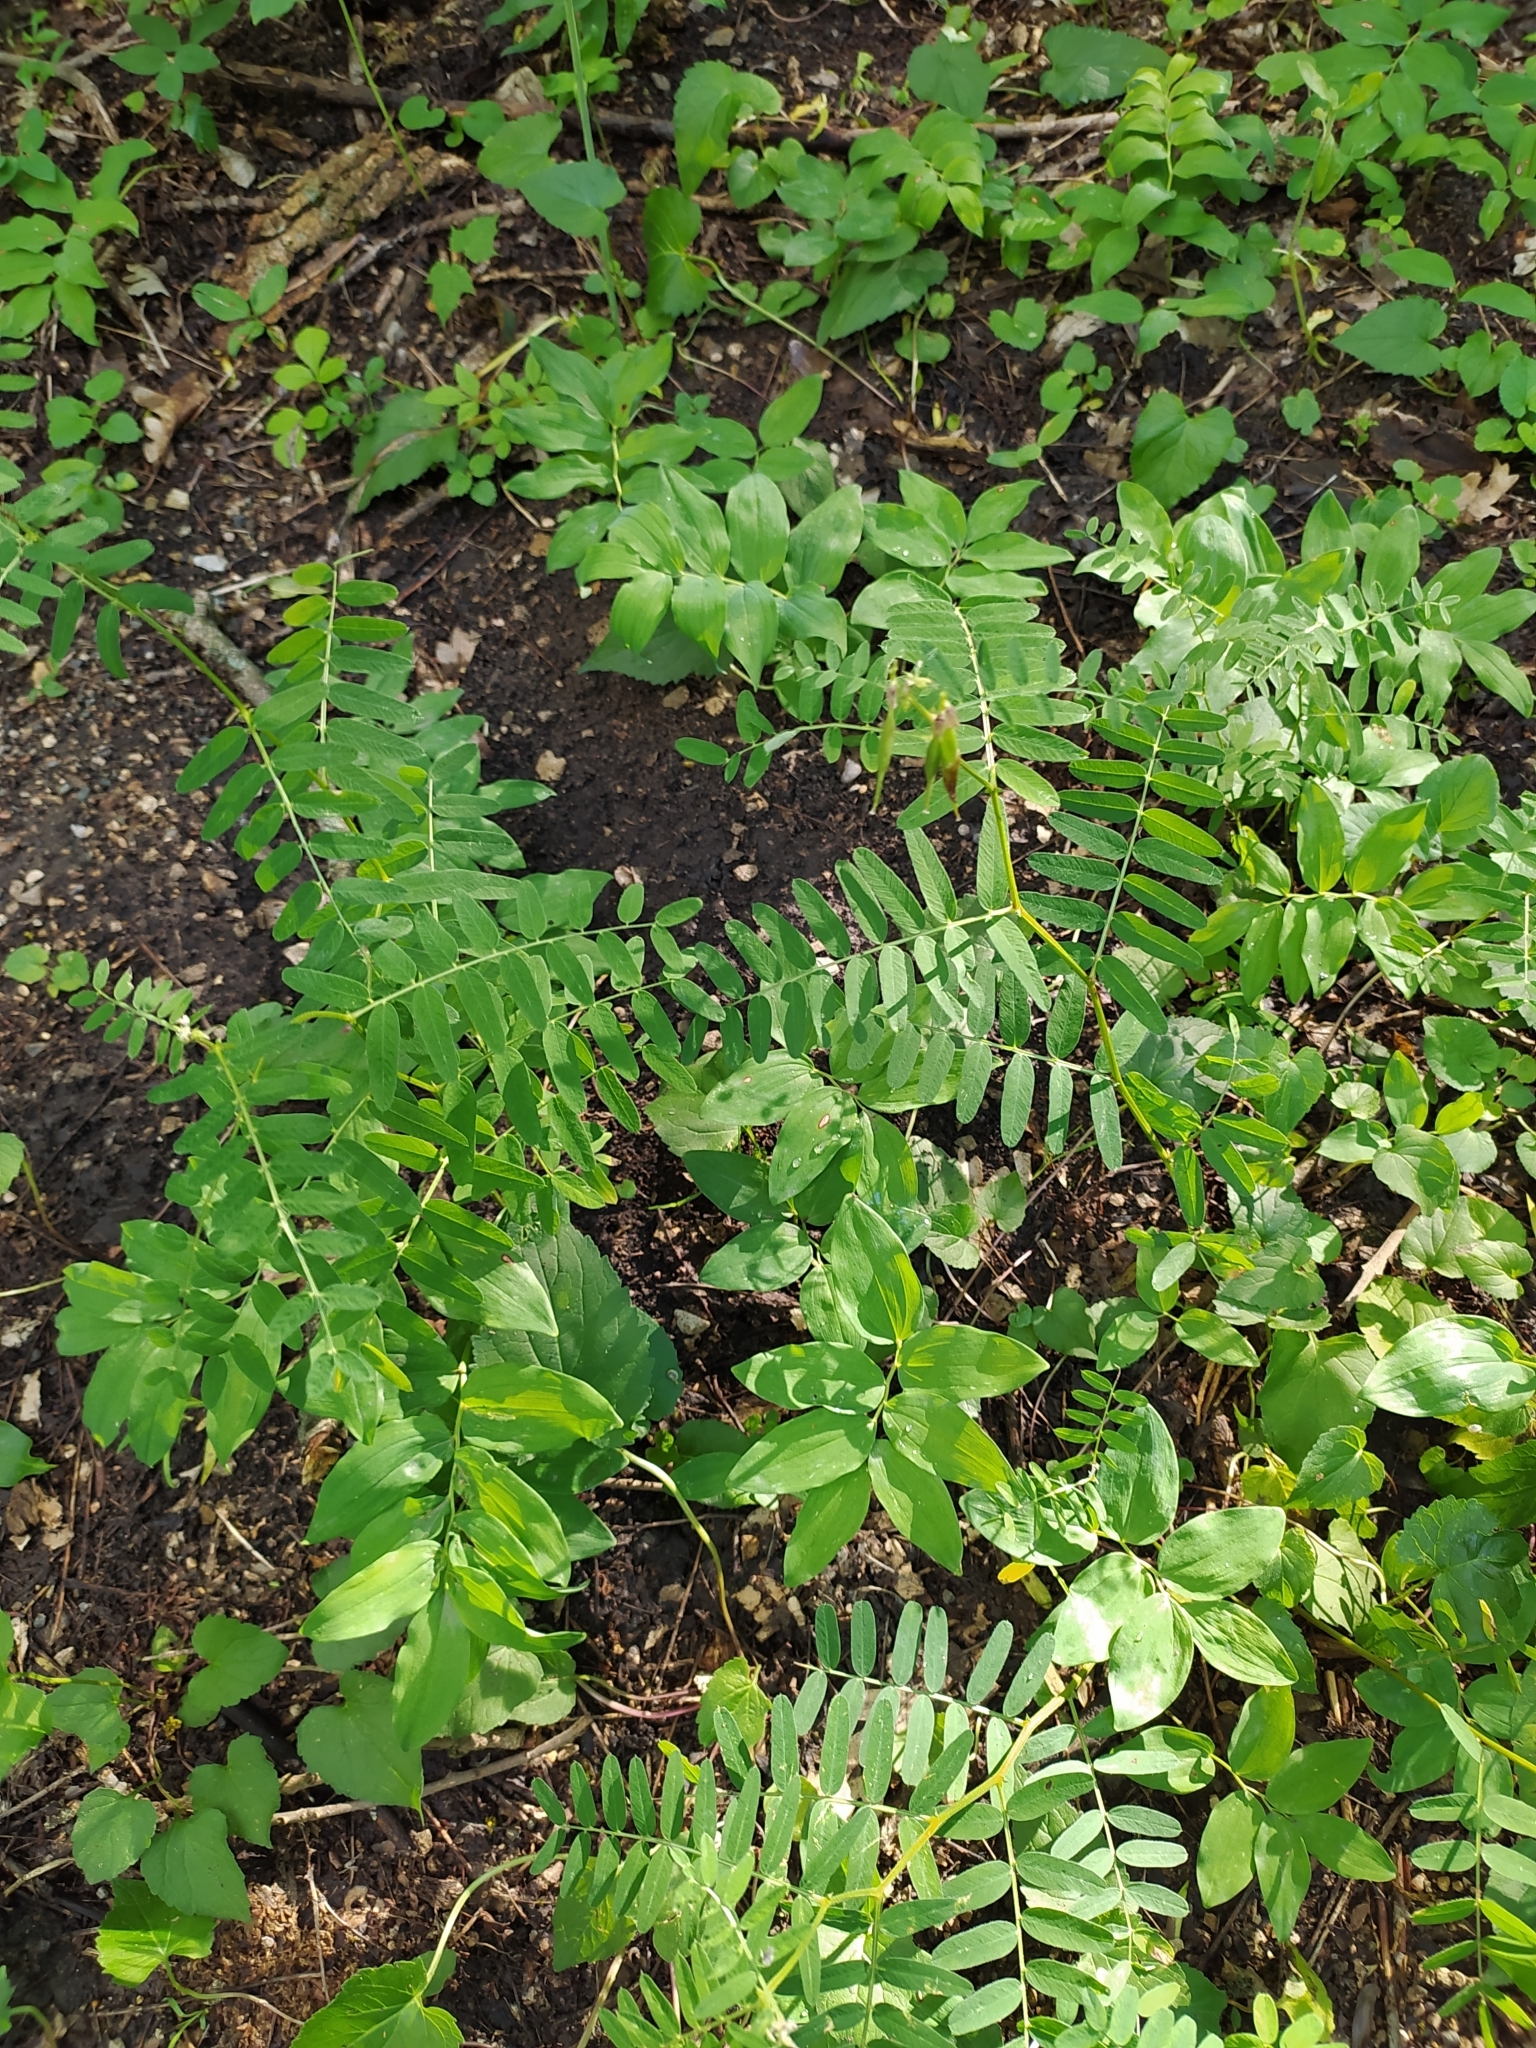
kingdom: Plantae
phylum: Tracheophyta
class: Magnoliopsida
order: Fabales
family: Fabaceae
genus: Vicia
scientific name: Vicia cassubica
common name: Danzig vetch
